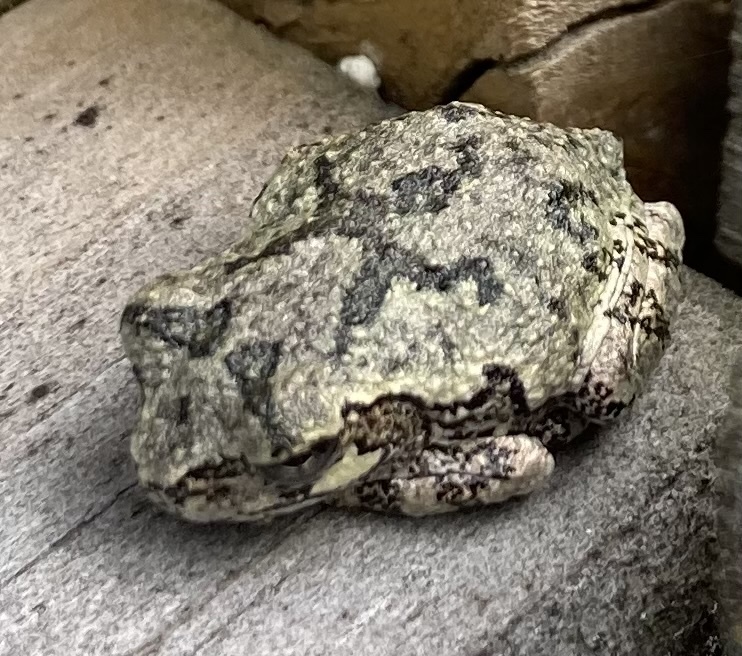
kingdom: Animalia
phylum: Chordata
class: Amphibia
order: Anura
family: Hylidae
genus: Dryophytes
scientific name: Dryophytes versicolor
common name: Gray treefrog
